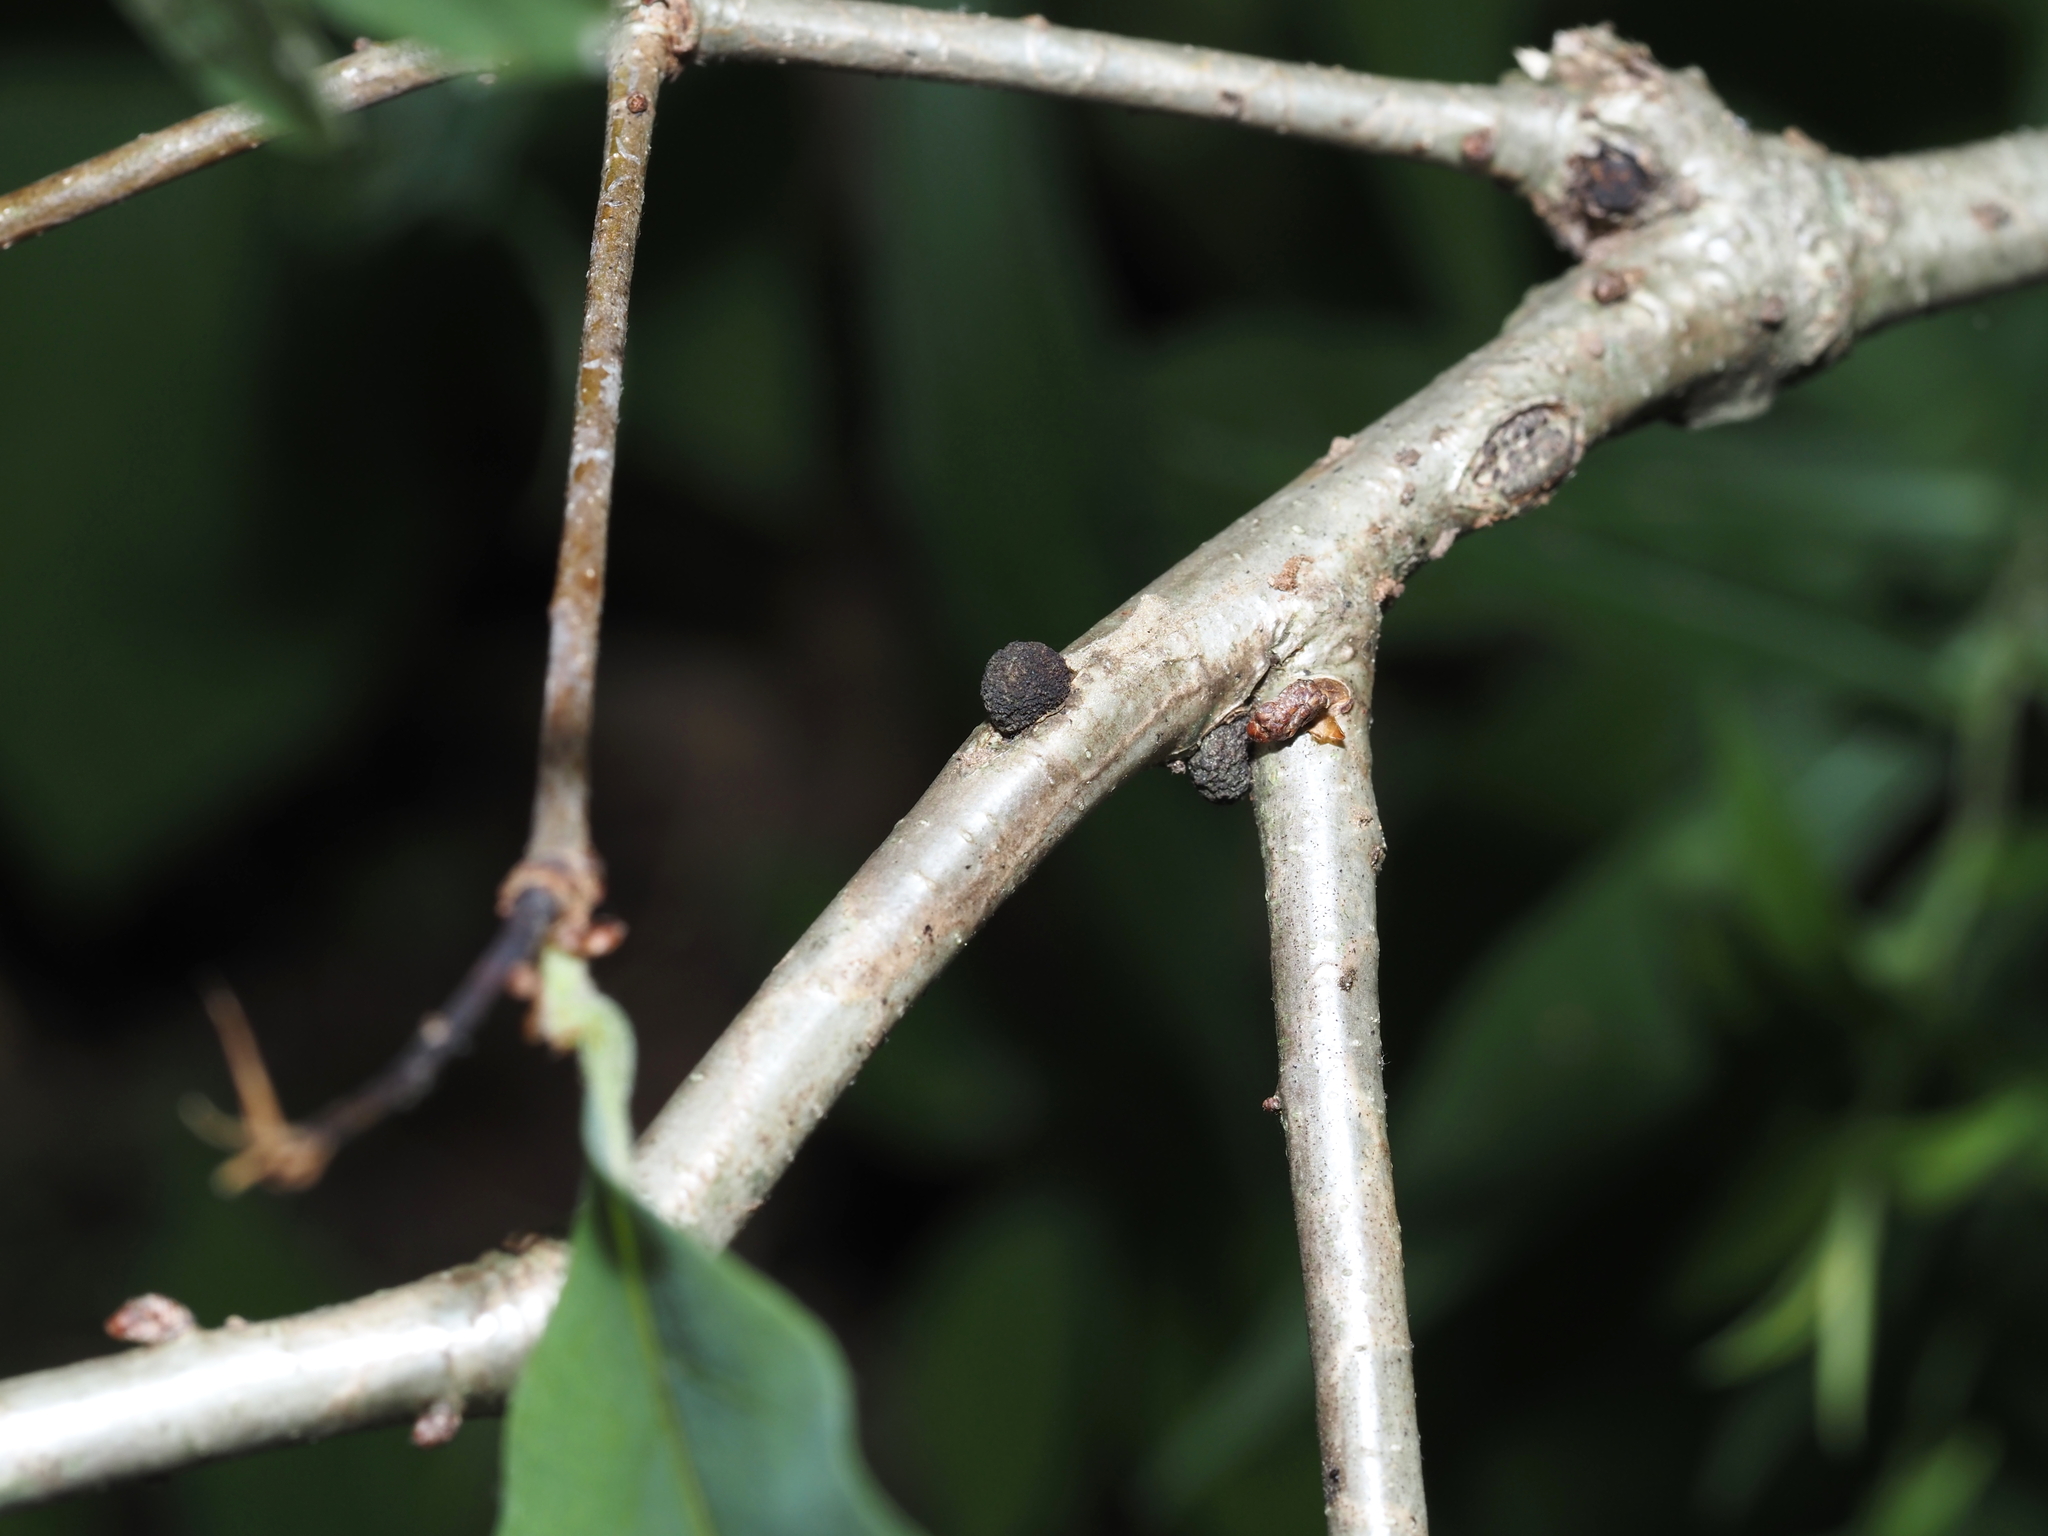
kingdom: Animalia
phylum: Arthropoda
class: Insecta
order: Hymenoptera
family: Cynipidae
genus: Disholcaspis
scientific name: Disholcaspis
